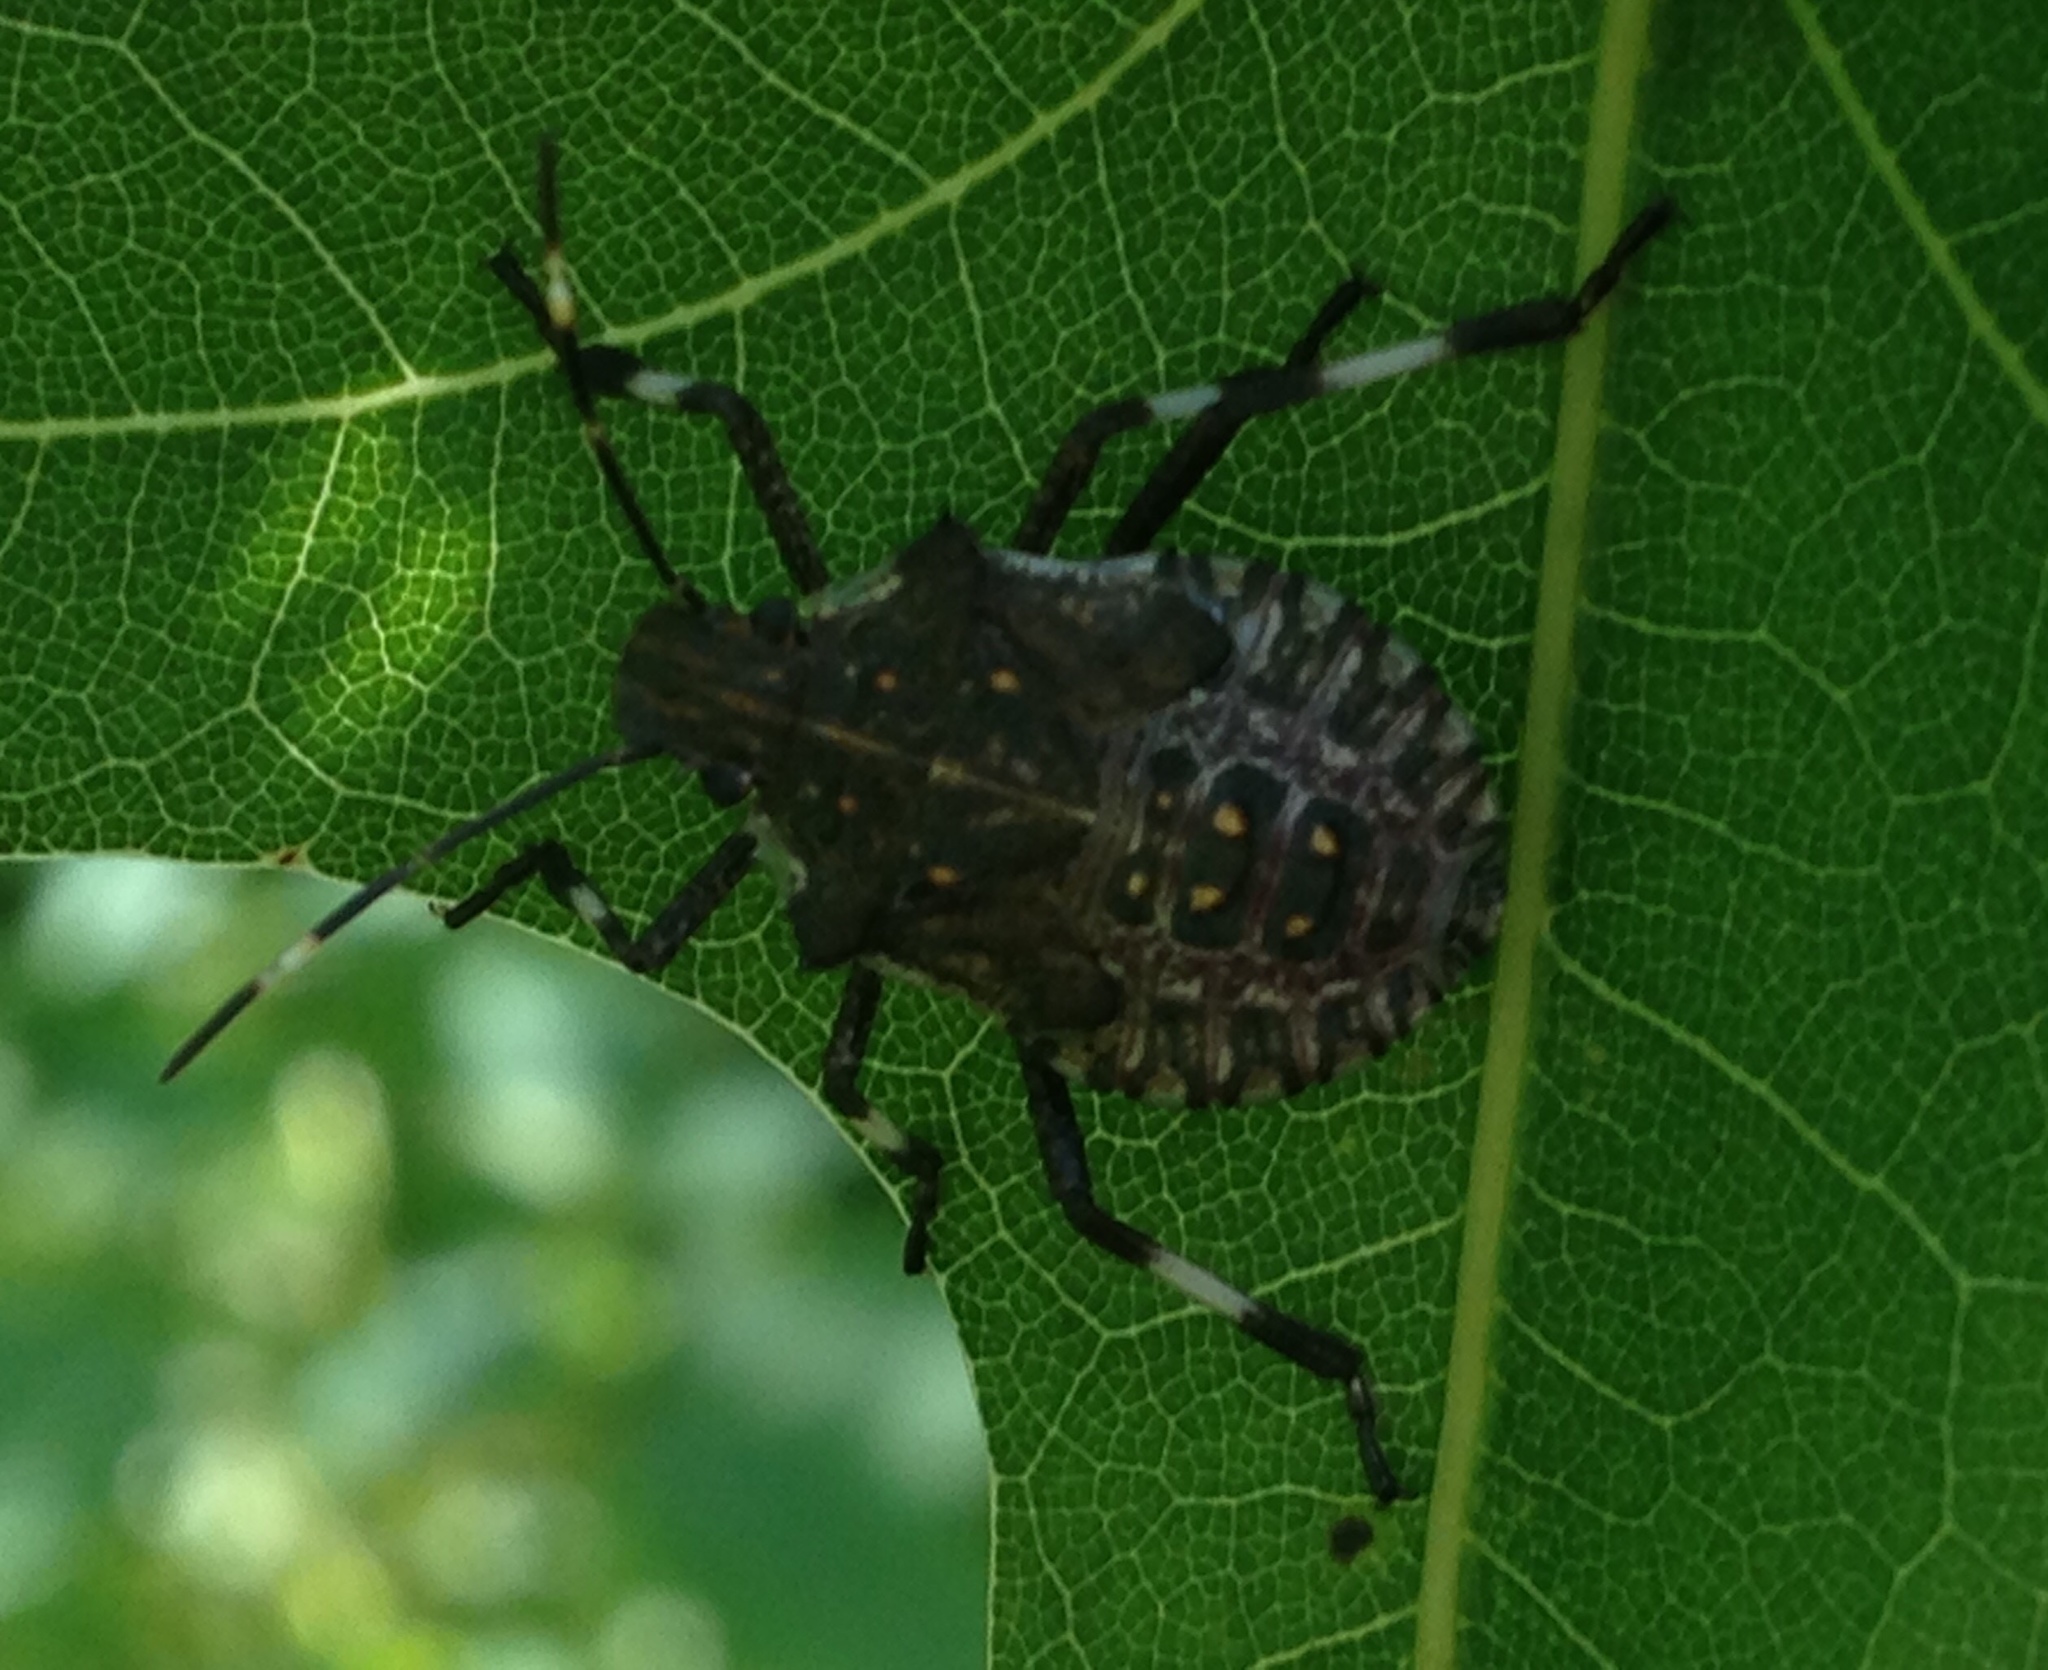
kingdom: Animalia
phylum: Arthropoda
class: Insecta
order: Hemiptera
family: Pentatomidae
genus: Halyomorpha
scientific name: Halyomorpha halys
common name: Brown marmorated stink bug
